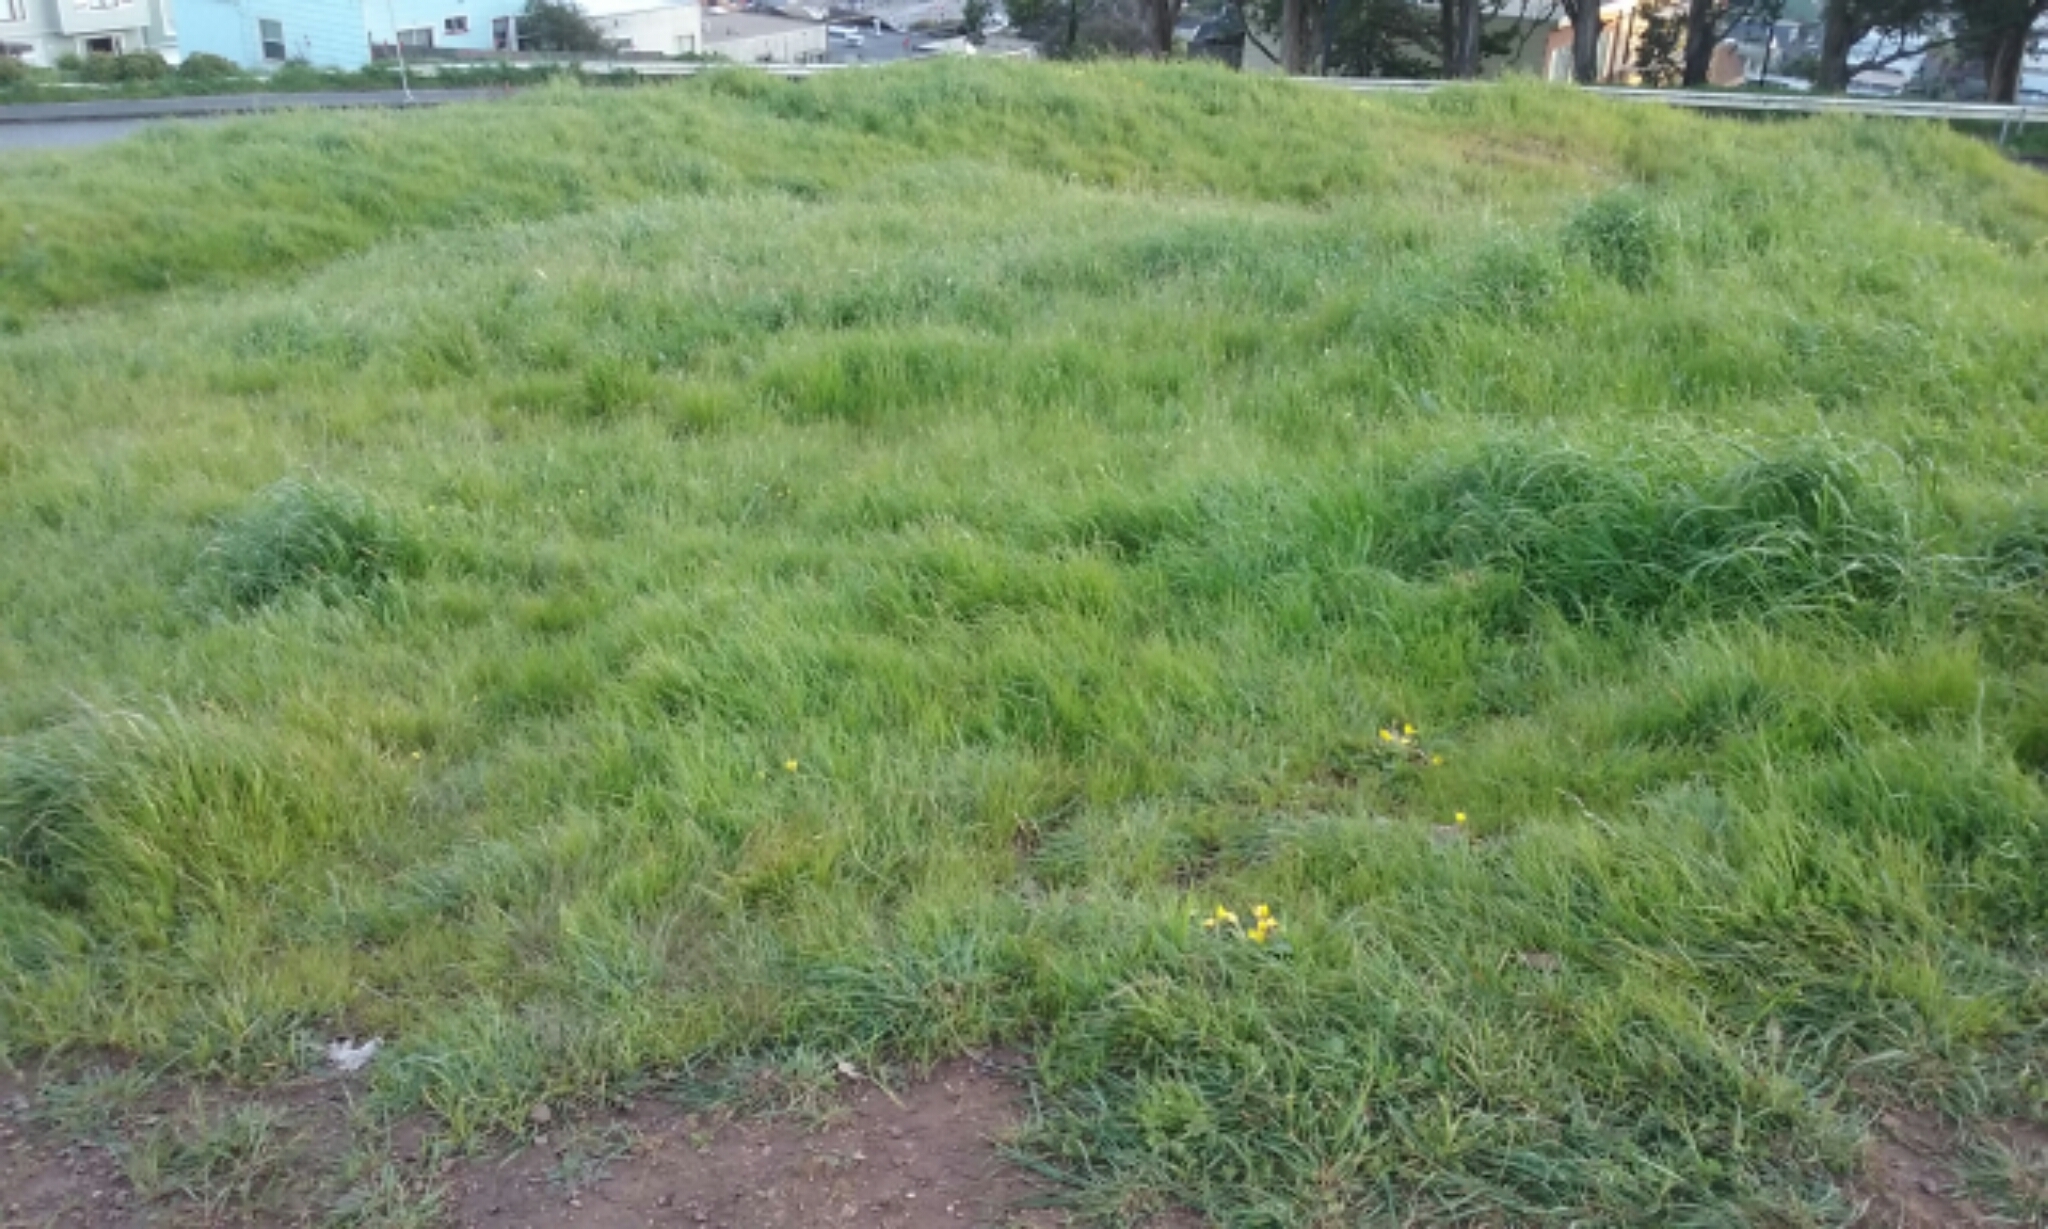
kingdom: Plantae
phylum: Tracheophyta
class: Magnoliopsida
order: Myrtales
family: Onagraceae
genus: Taraxia
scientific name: Taraxia ovata
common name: Goldeneggs
